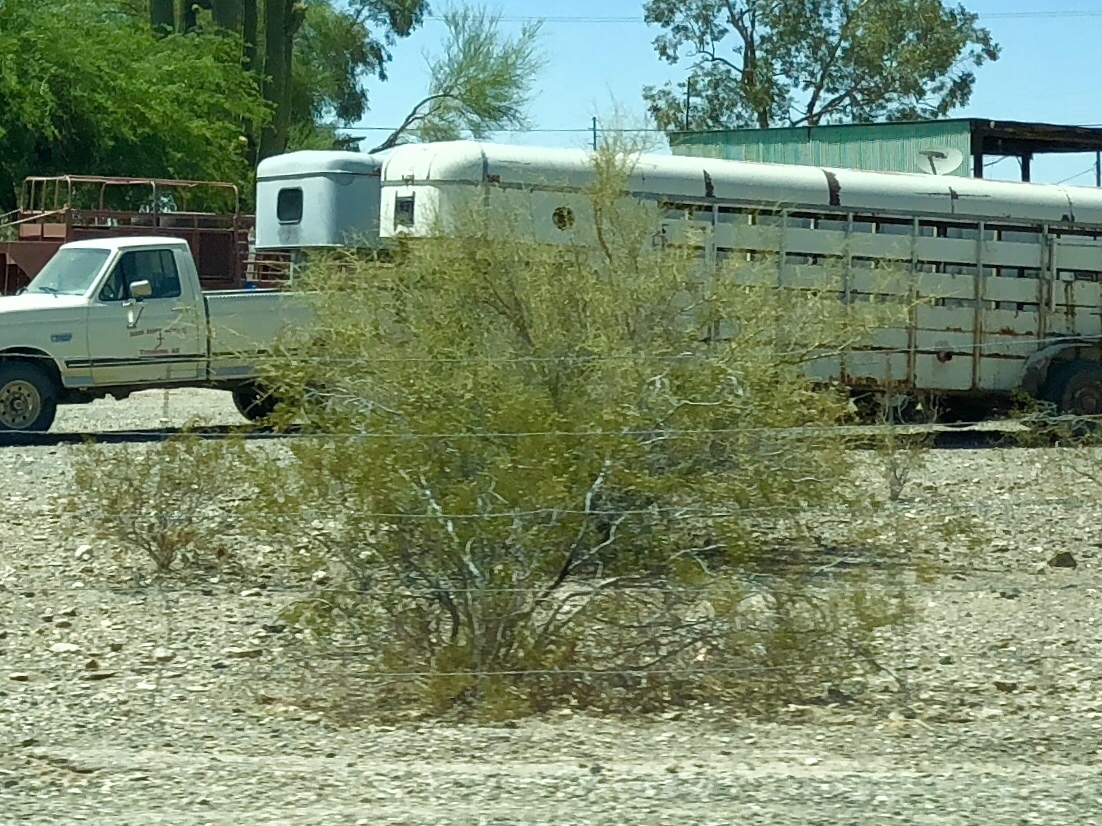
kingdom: Plantae
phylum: Tracheophyta
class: Magnoliopsida
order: Zygophyllales
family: Zygophyllaceae
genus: Larrea
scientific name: Larrea tridentata
